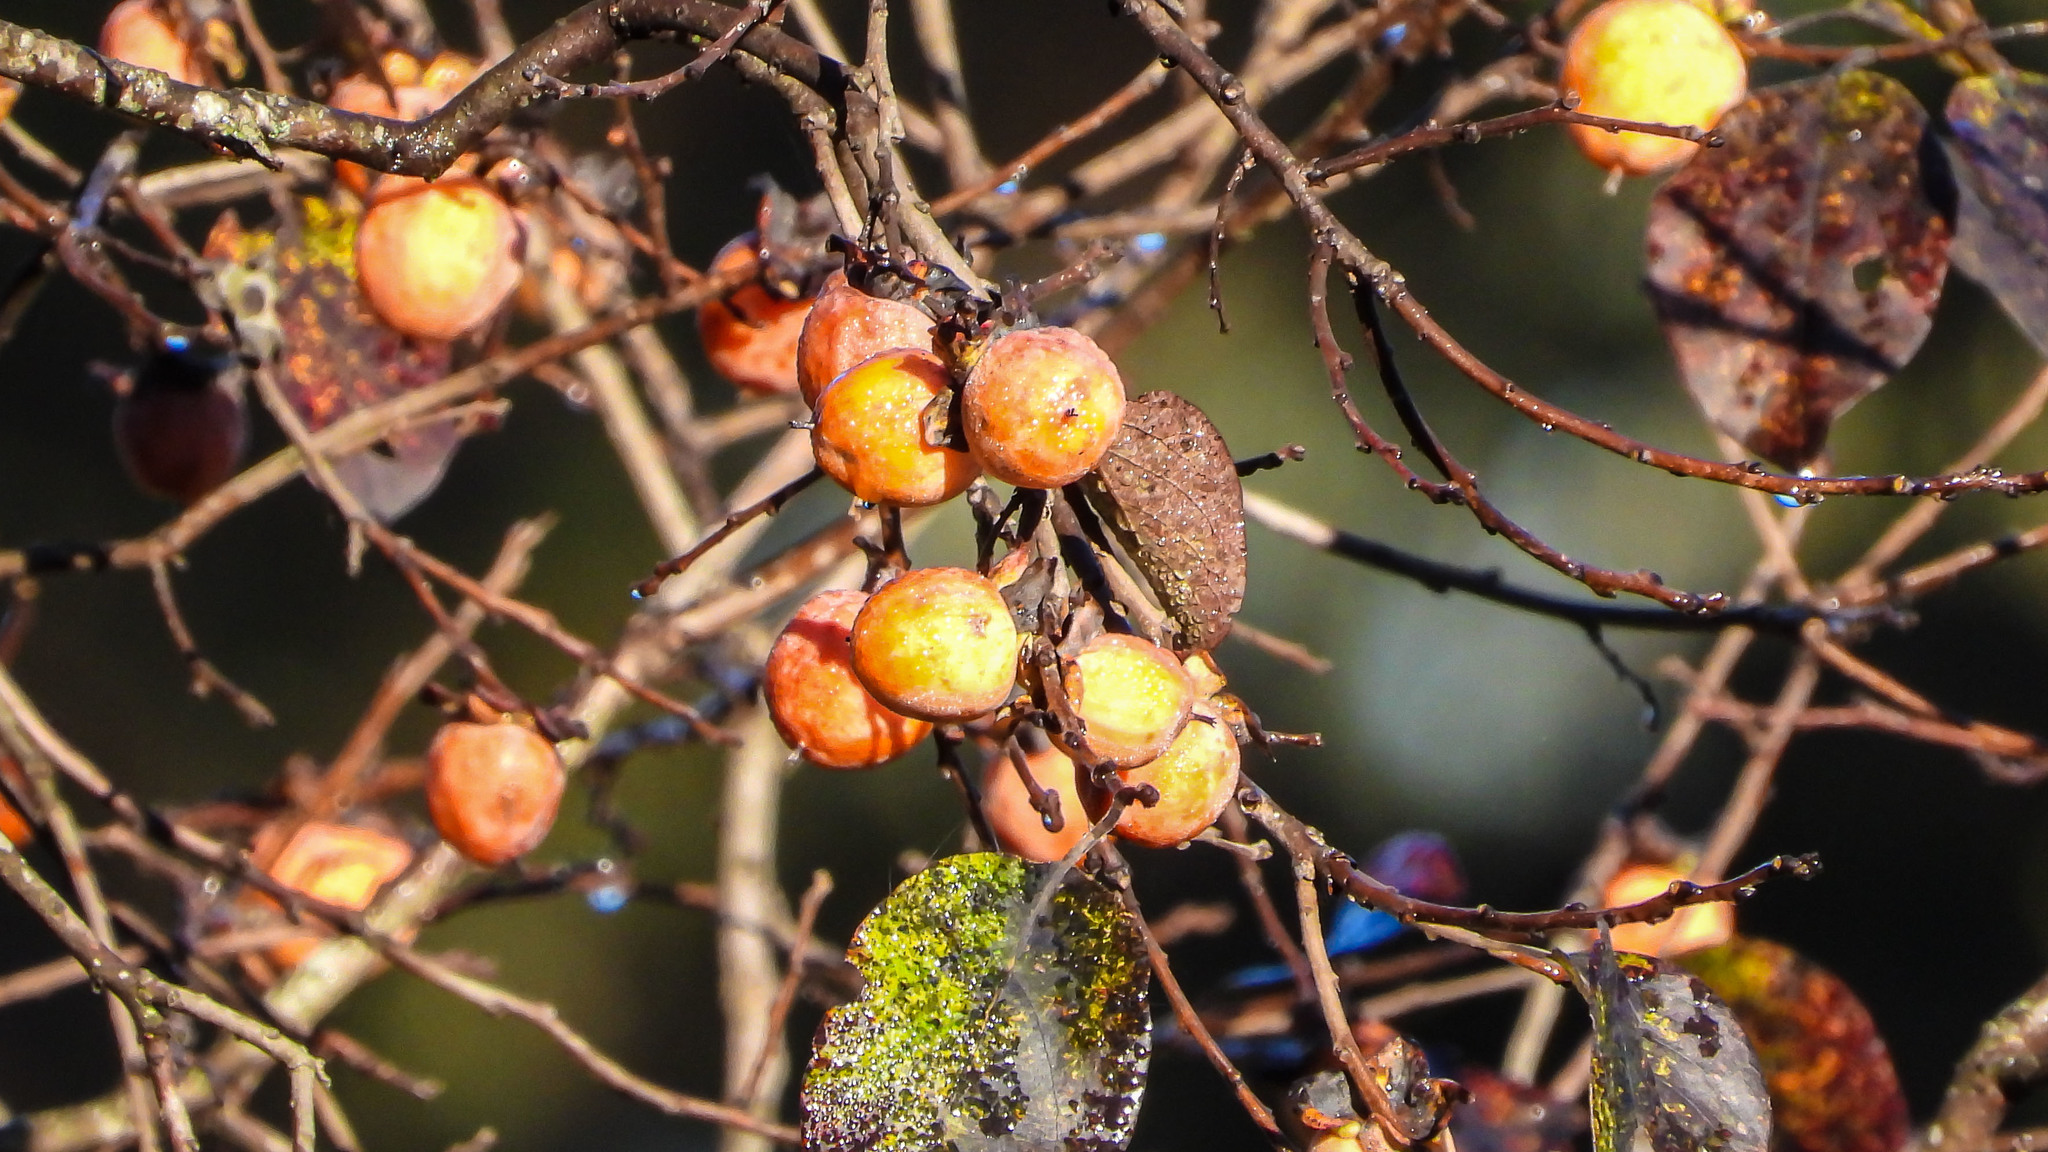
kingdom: Plantae
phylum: Tracheophyta
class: Magnoliopsida
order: Ericales
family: Ebenaceae
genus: Diospyros
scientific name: Diospyros virginiana
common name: Persimmon
